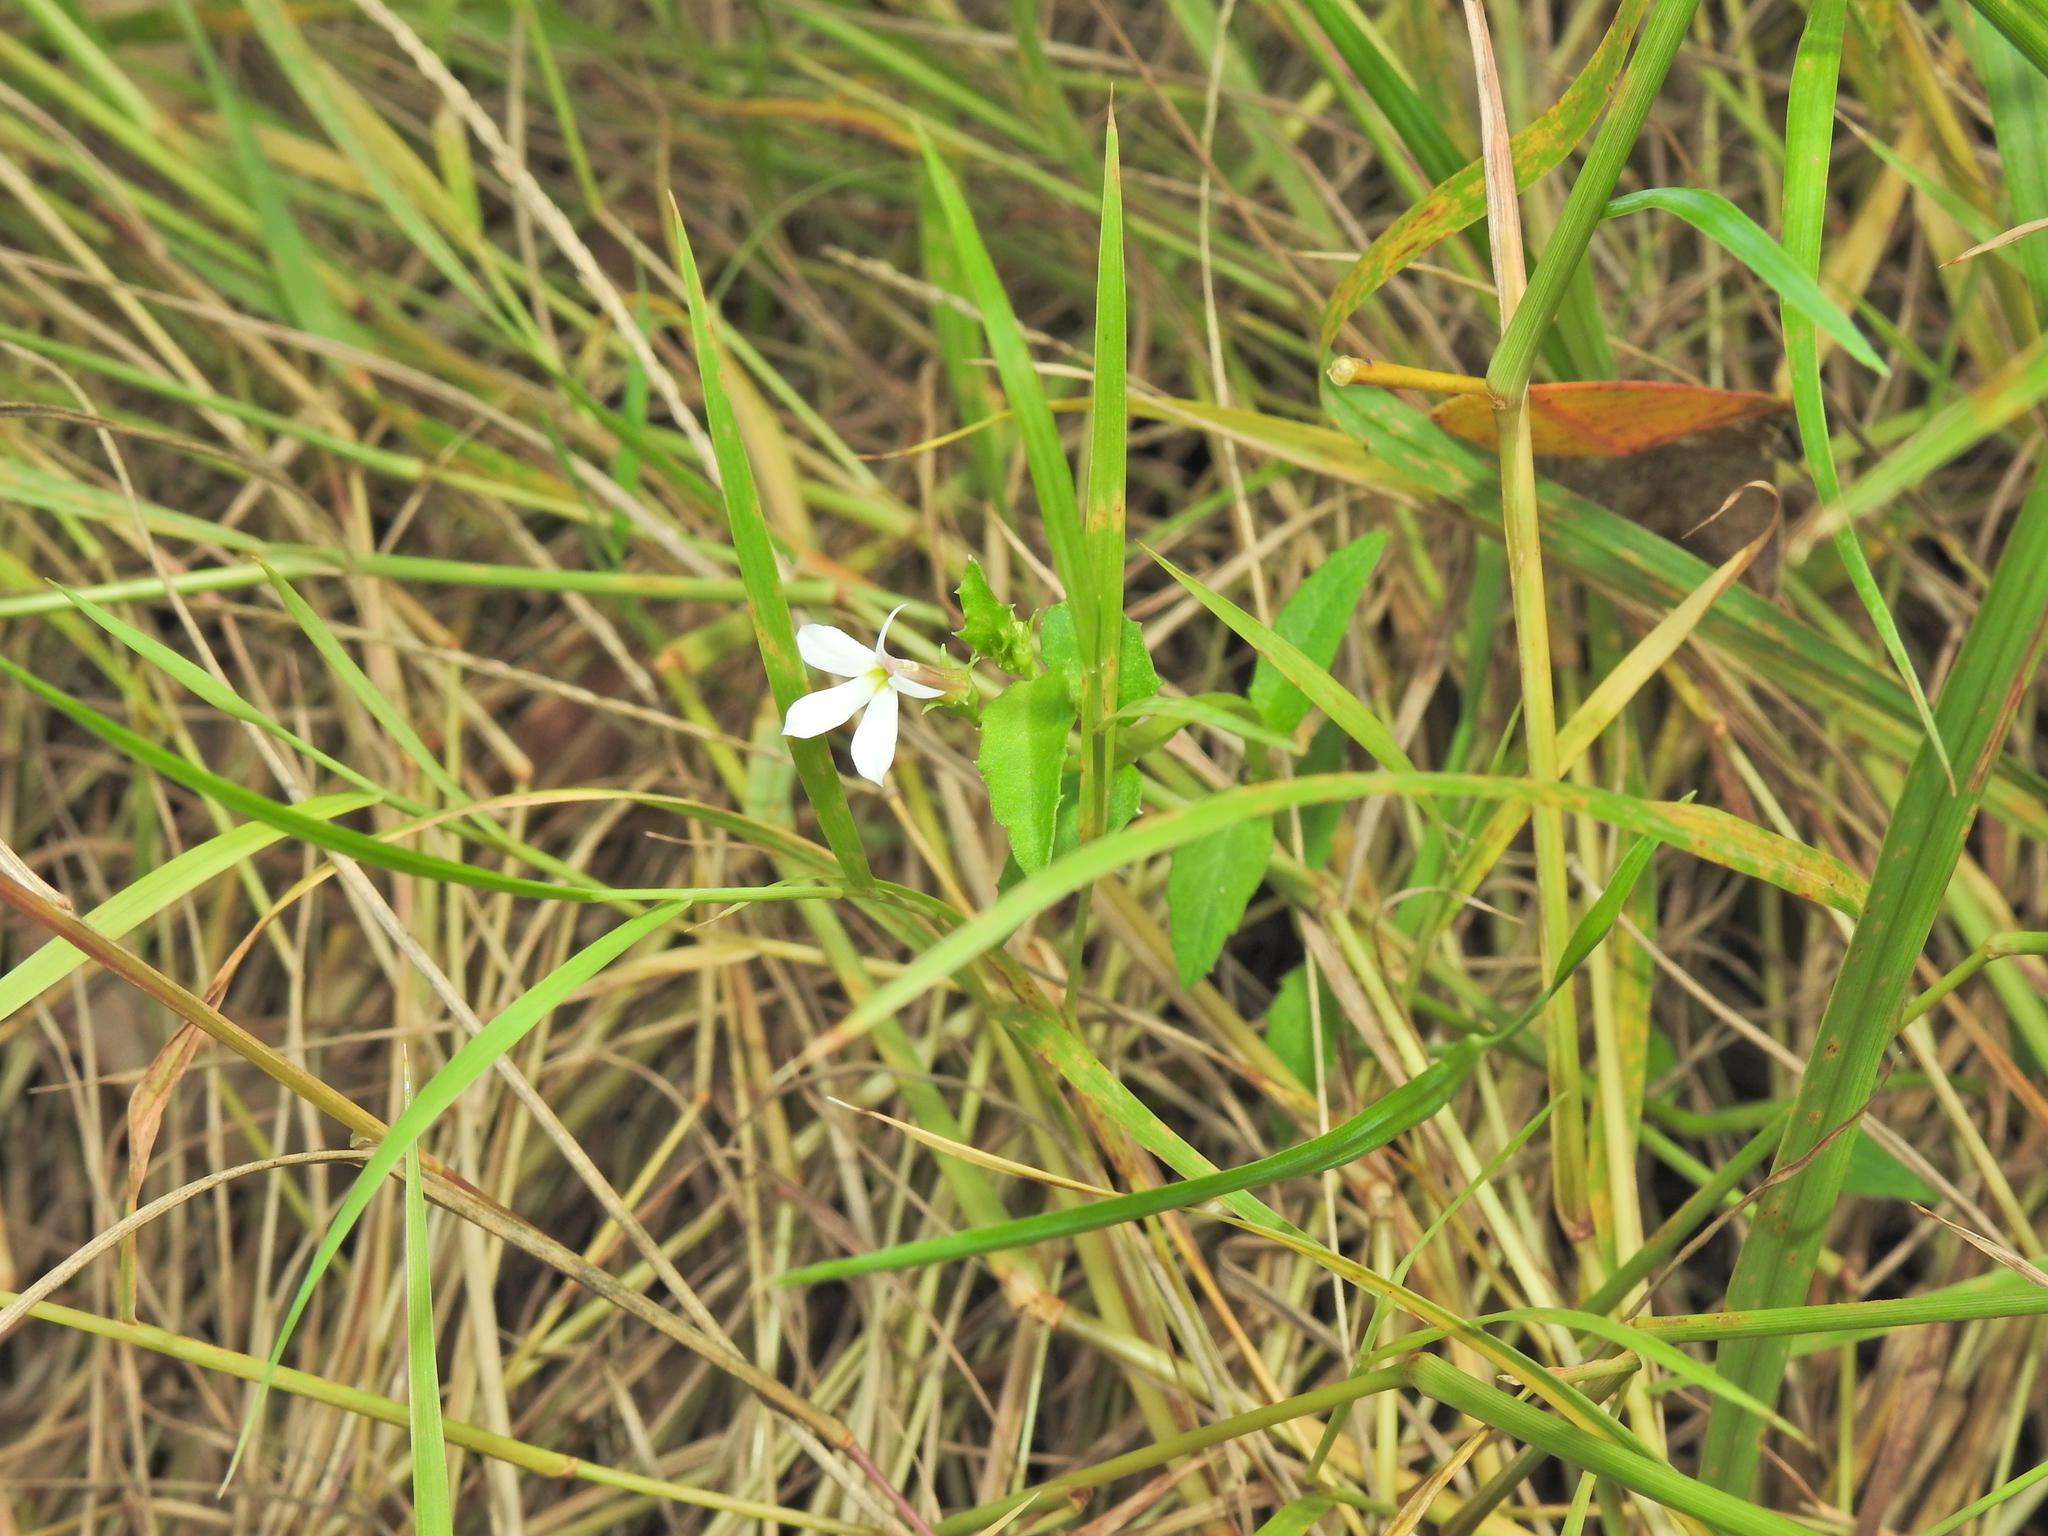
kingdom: Plantae
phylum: Tracheophyta
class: Magnoliopsida
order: Asterales
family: Campanulaceae
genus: Lobelia
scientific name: Lobelia purpurascens
